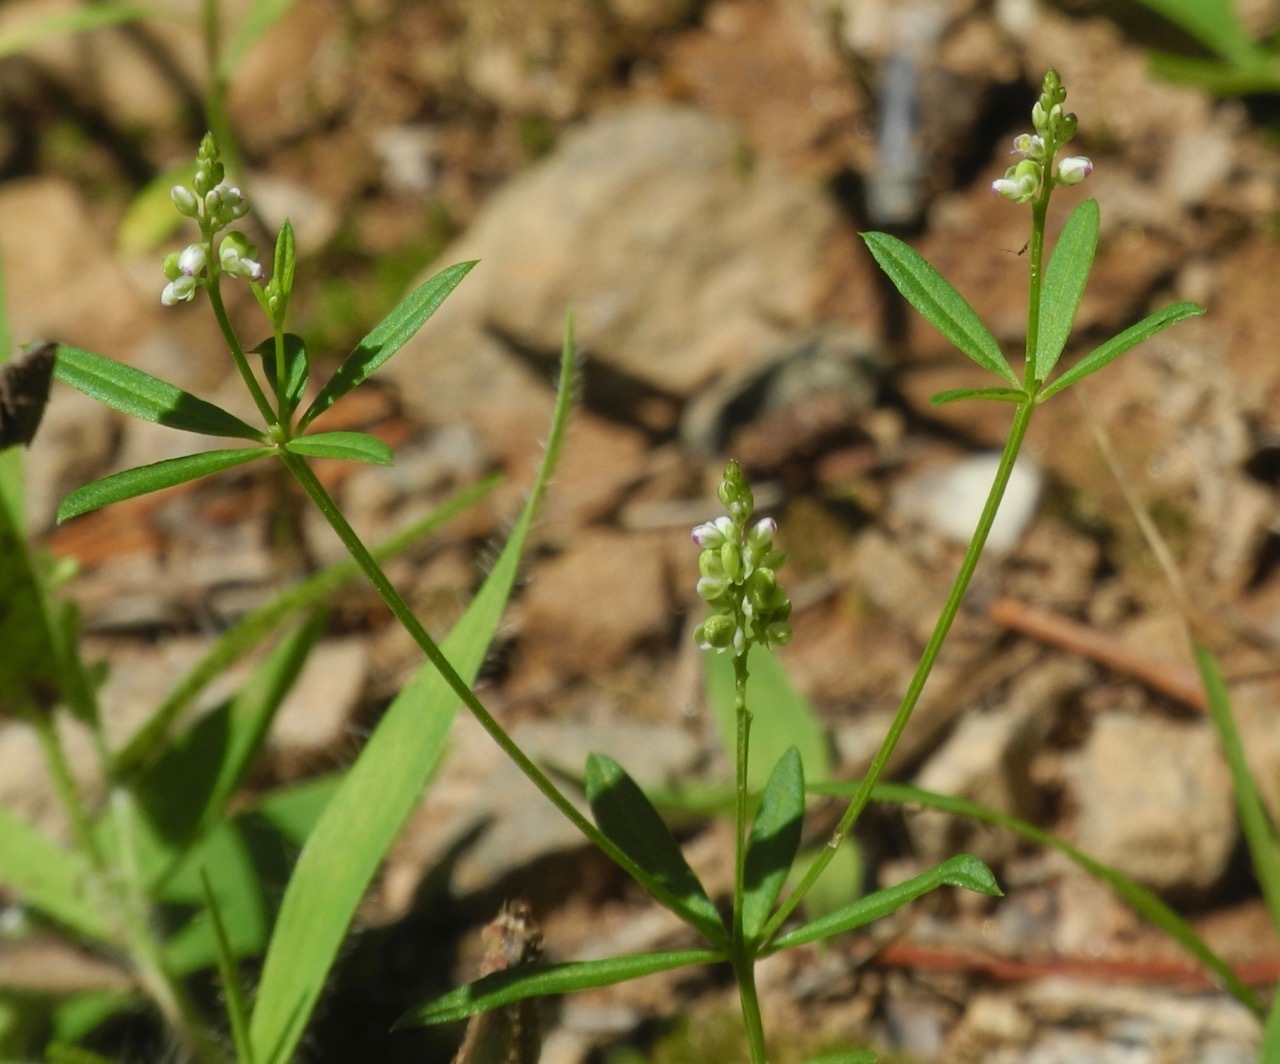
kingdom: Plantae
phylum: Tracheophyta
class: Magnoliopsida
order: Fabales
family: Polygalaceae
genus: Polygala
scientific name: Polygala verticillata
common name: Whorl milkwort
